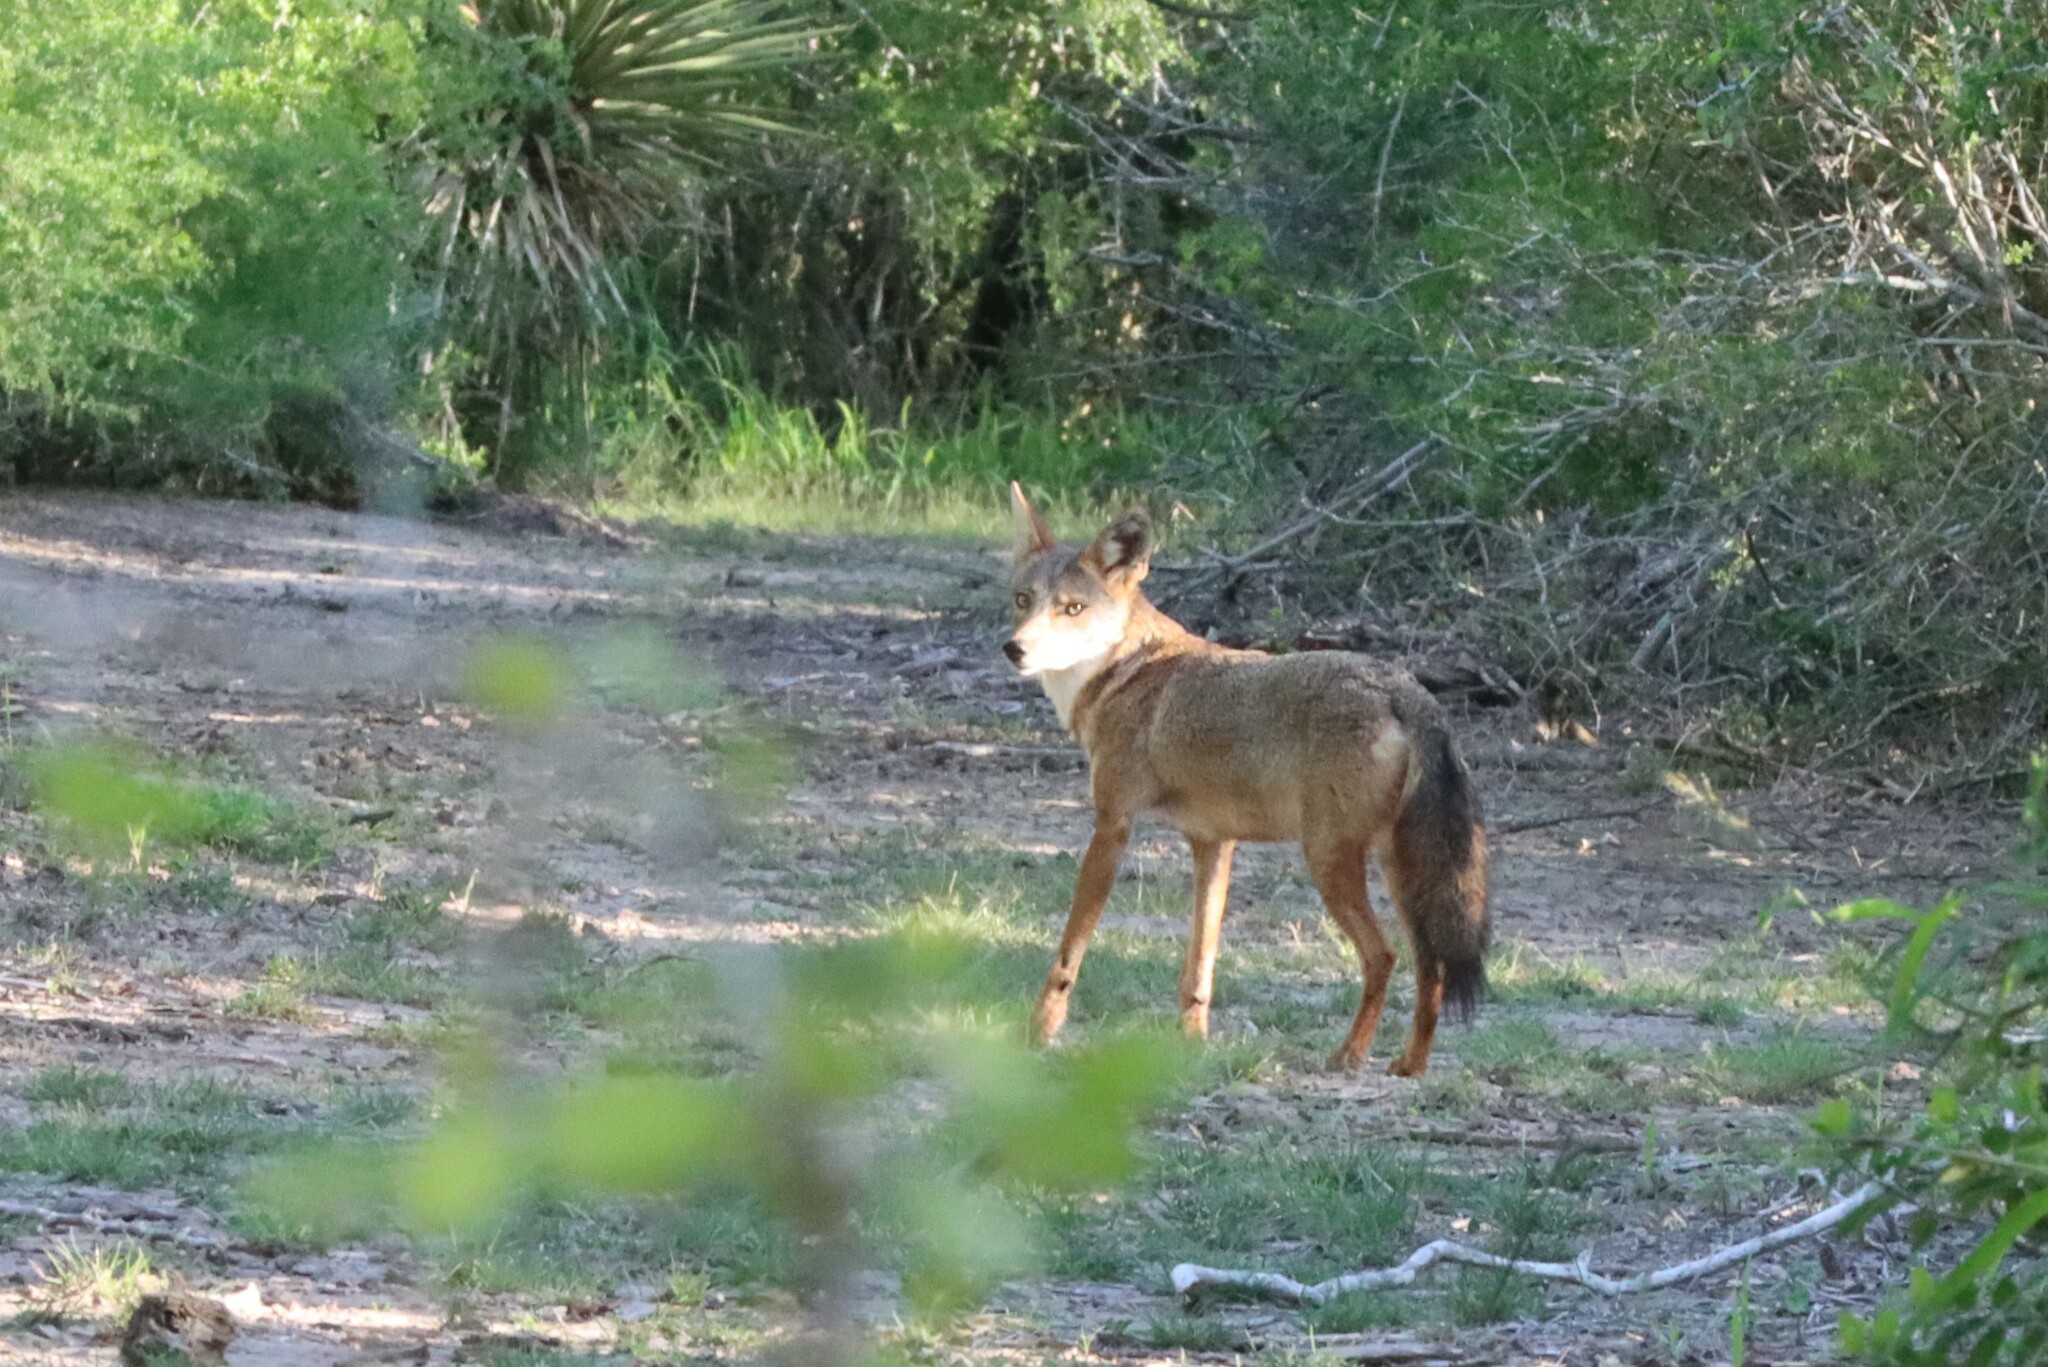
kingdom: Animalia
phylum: Chordata
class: Mammalia
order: Carnivora
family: Canidae
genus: Canis
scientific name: Canis latrans
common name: Coyote
